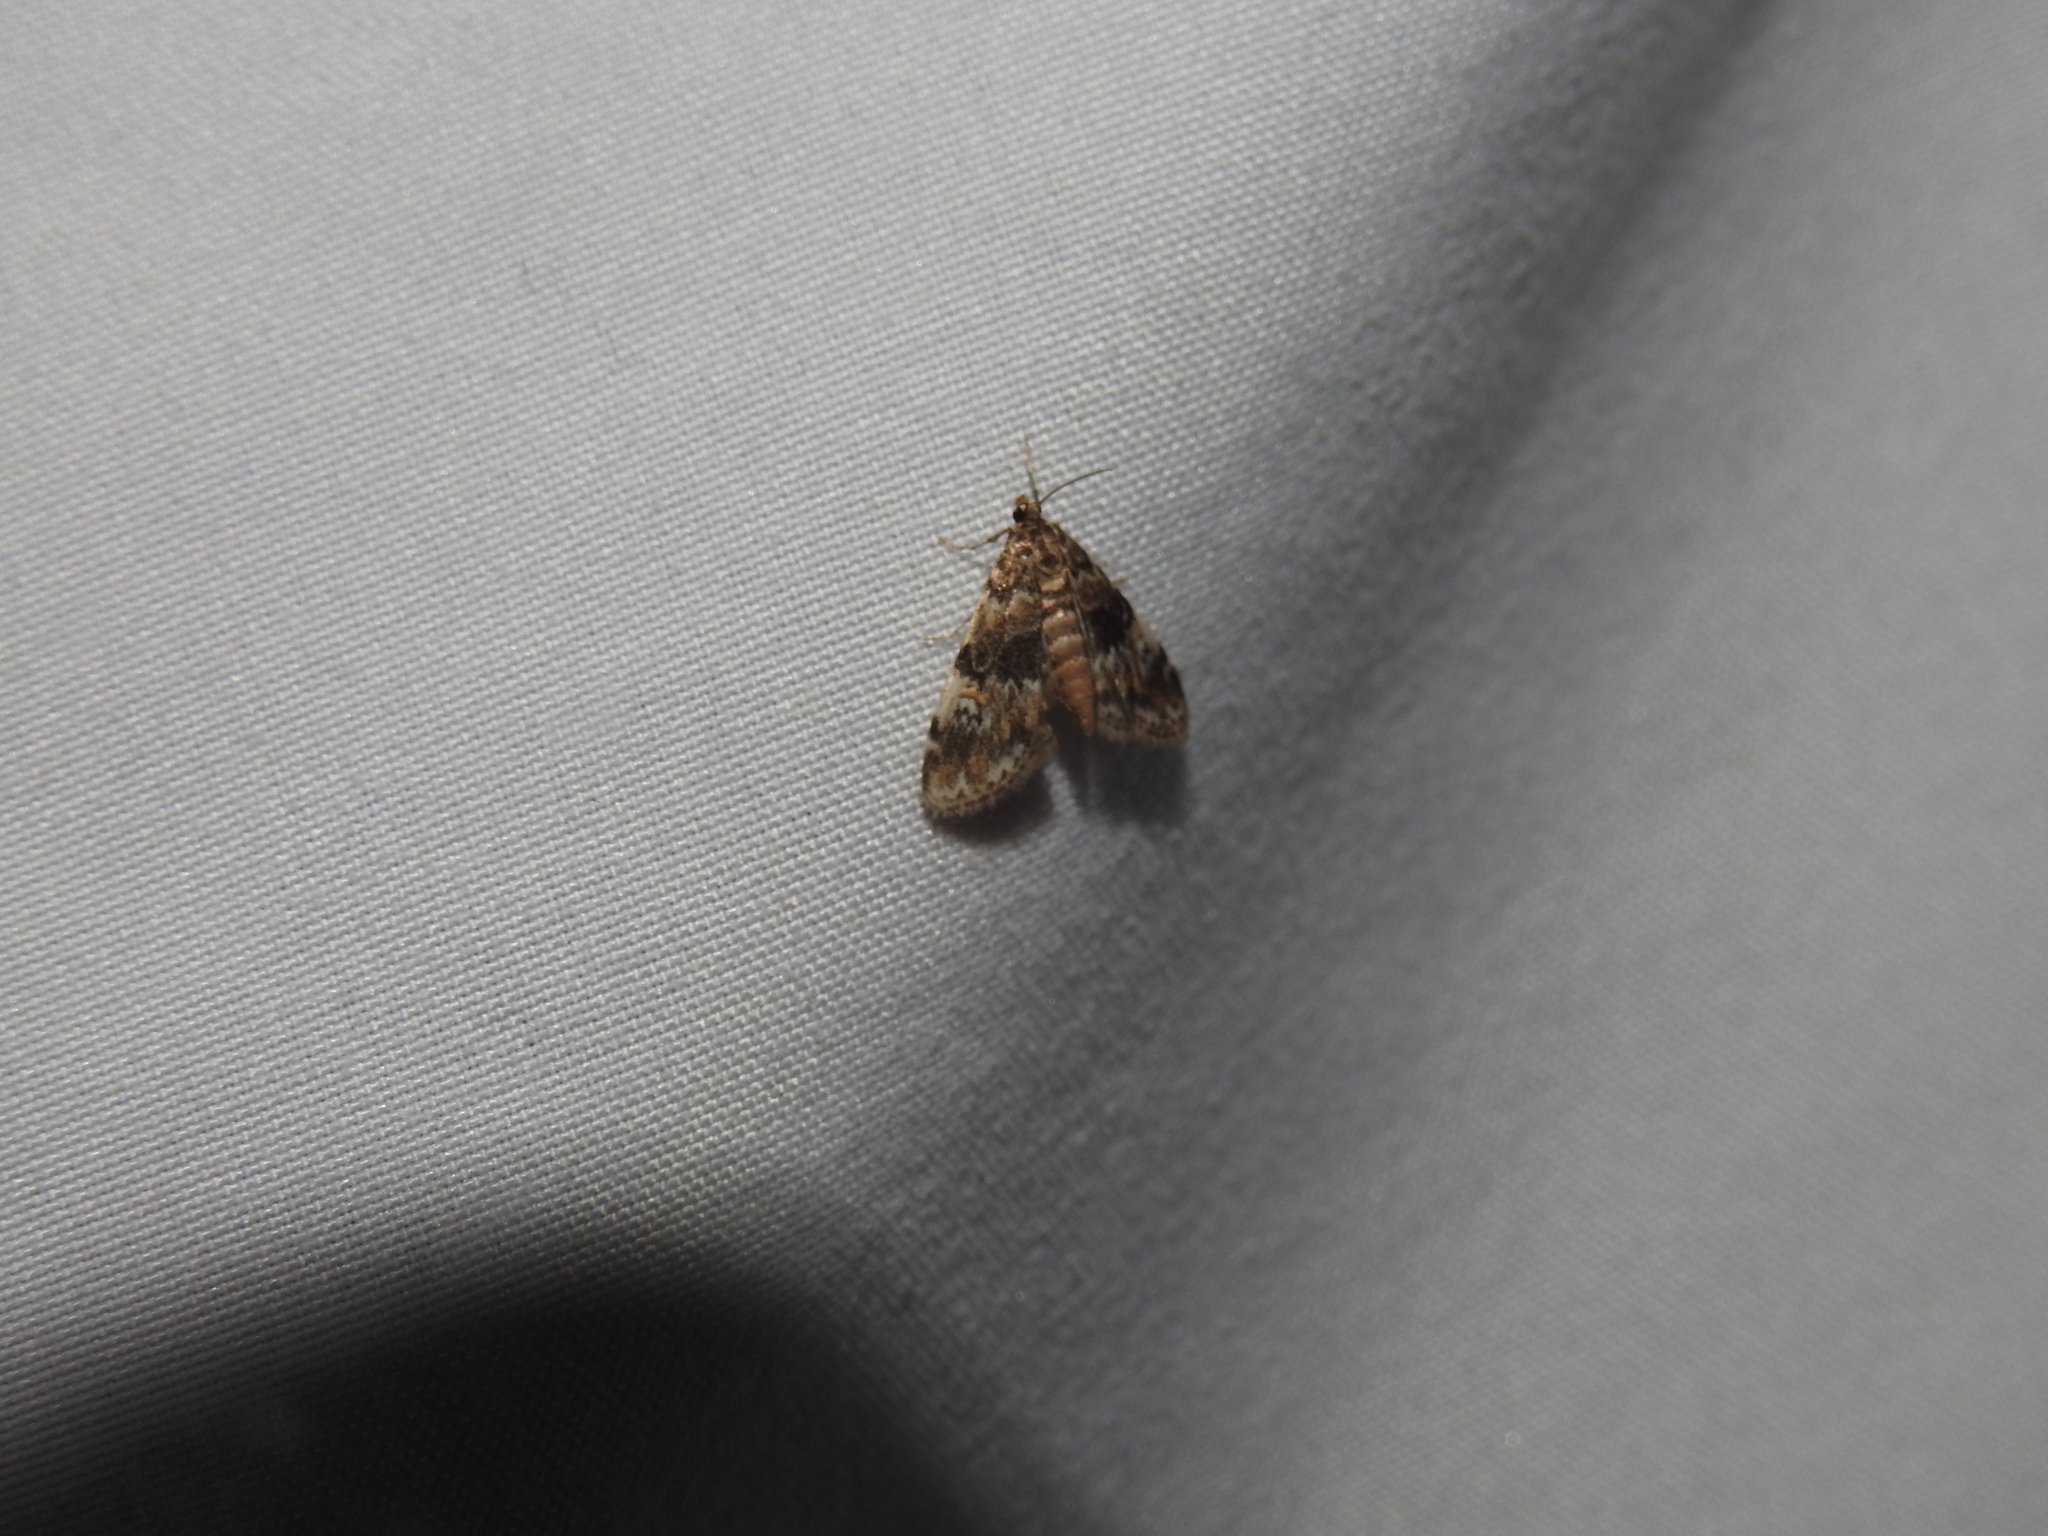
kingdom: Animalia
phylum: Arthropoda
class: Insecta
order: Lepidoptera
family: Crambidae
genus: Elophila
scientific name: Elophila obliteralis
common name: Waterlily leafcutter moth
